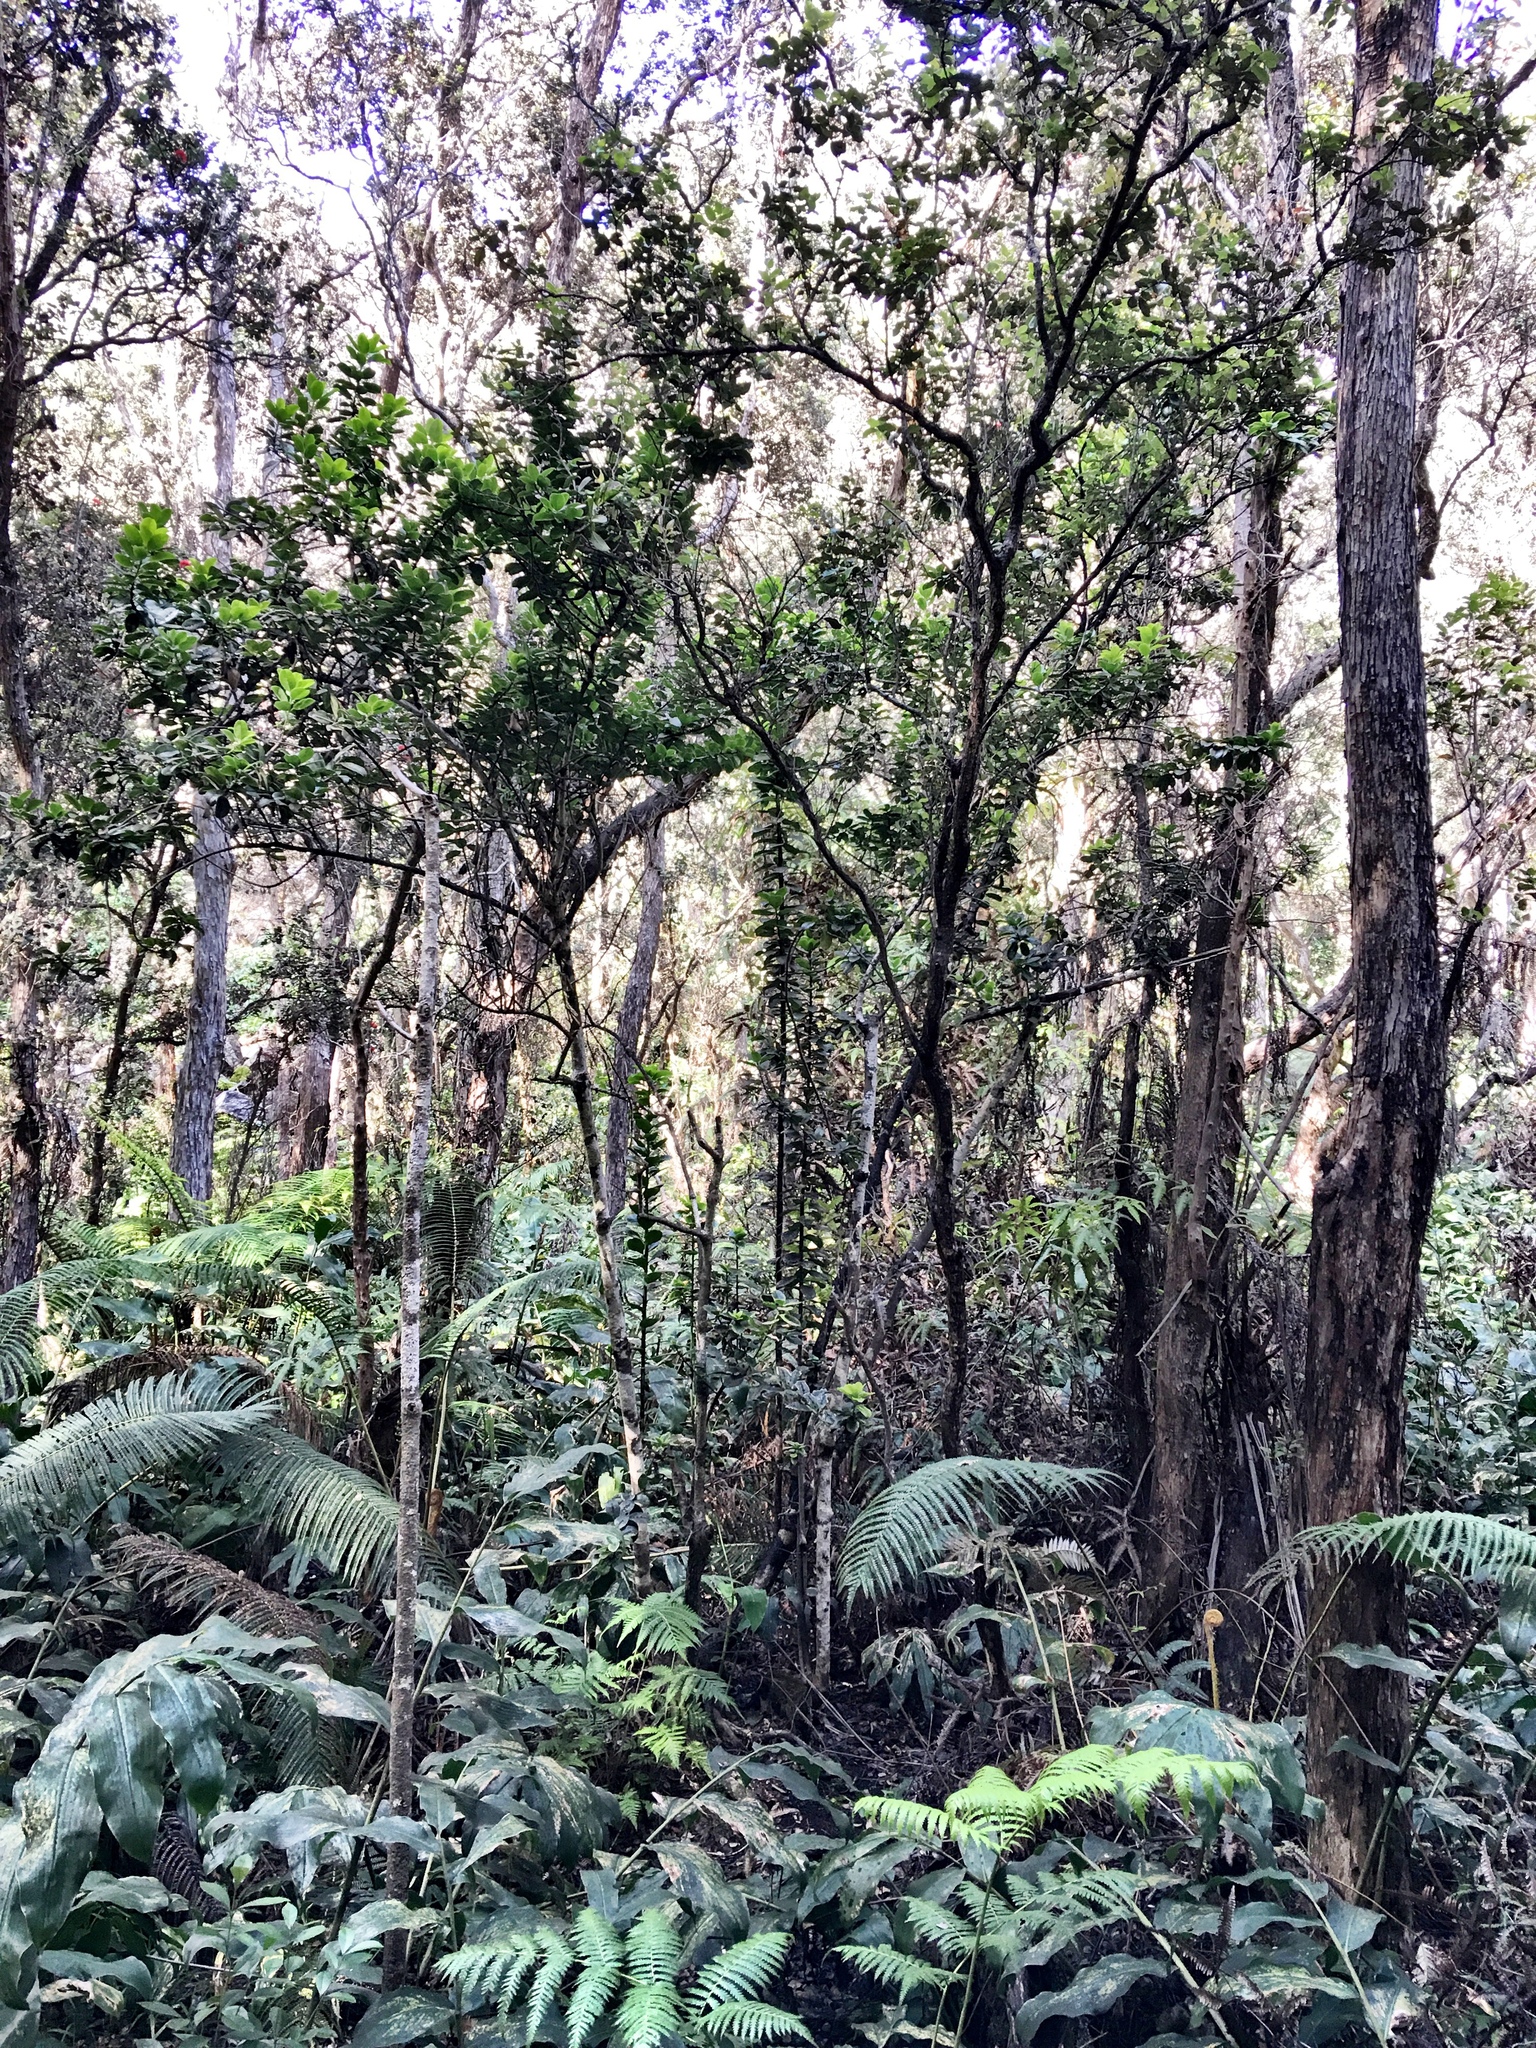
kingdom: Plantae
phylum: Tracheophyta
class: Magnoliopsida
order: Aquifoliales
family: Aquifoliaceae
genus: Ilex
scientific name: Ilex anomala
